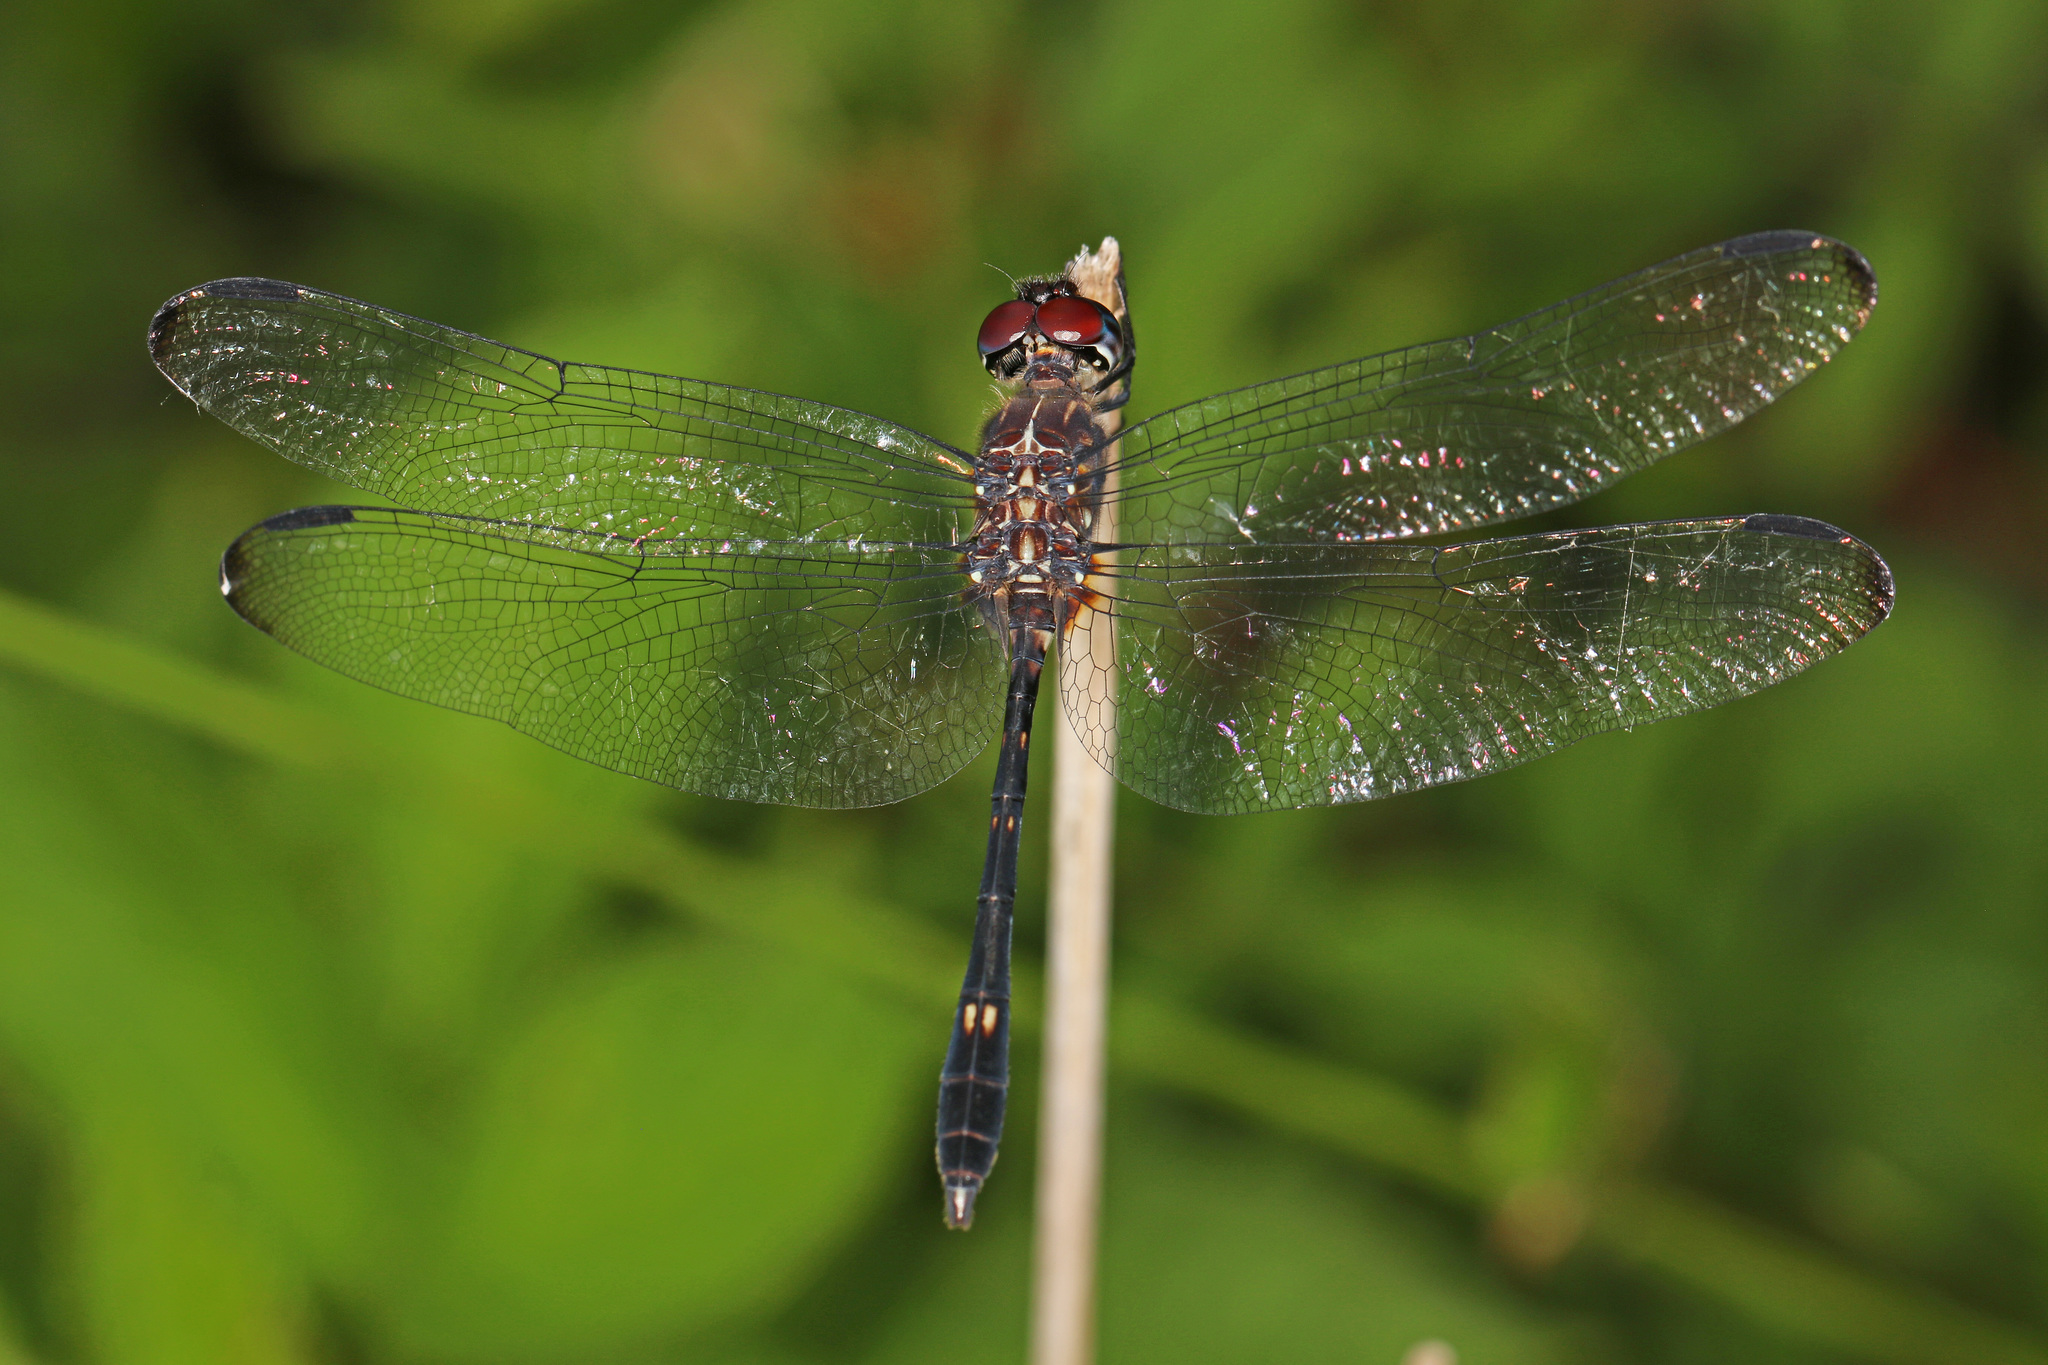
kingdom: Animalia
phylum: Arthropoda
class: Insecta
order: Odonata
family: Libellulidae
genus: Dythemis
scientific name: Dythemis velox
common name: Swift setwing
